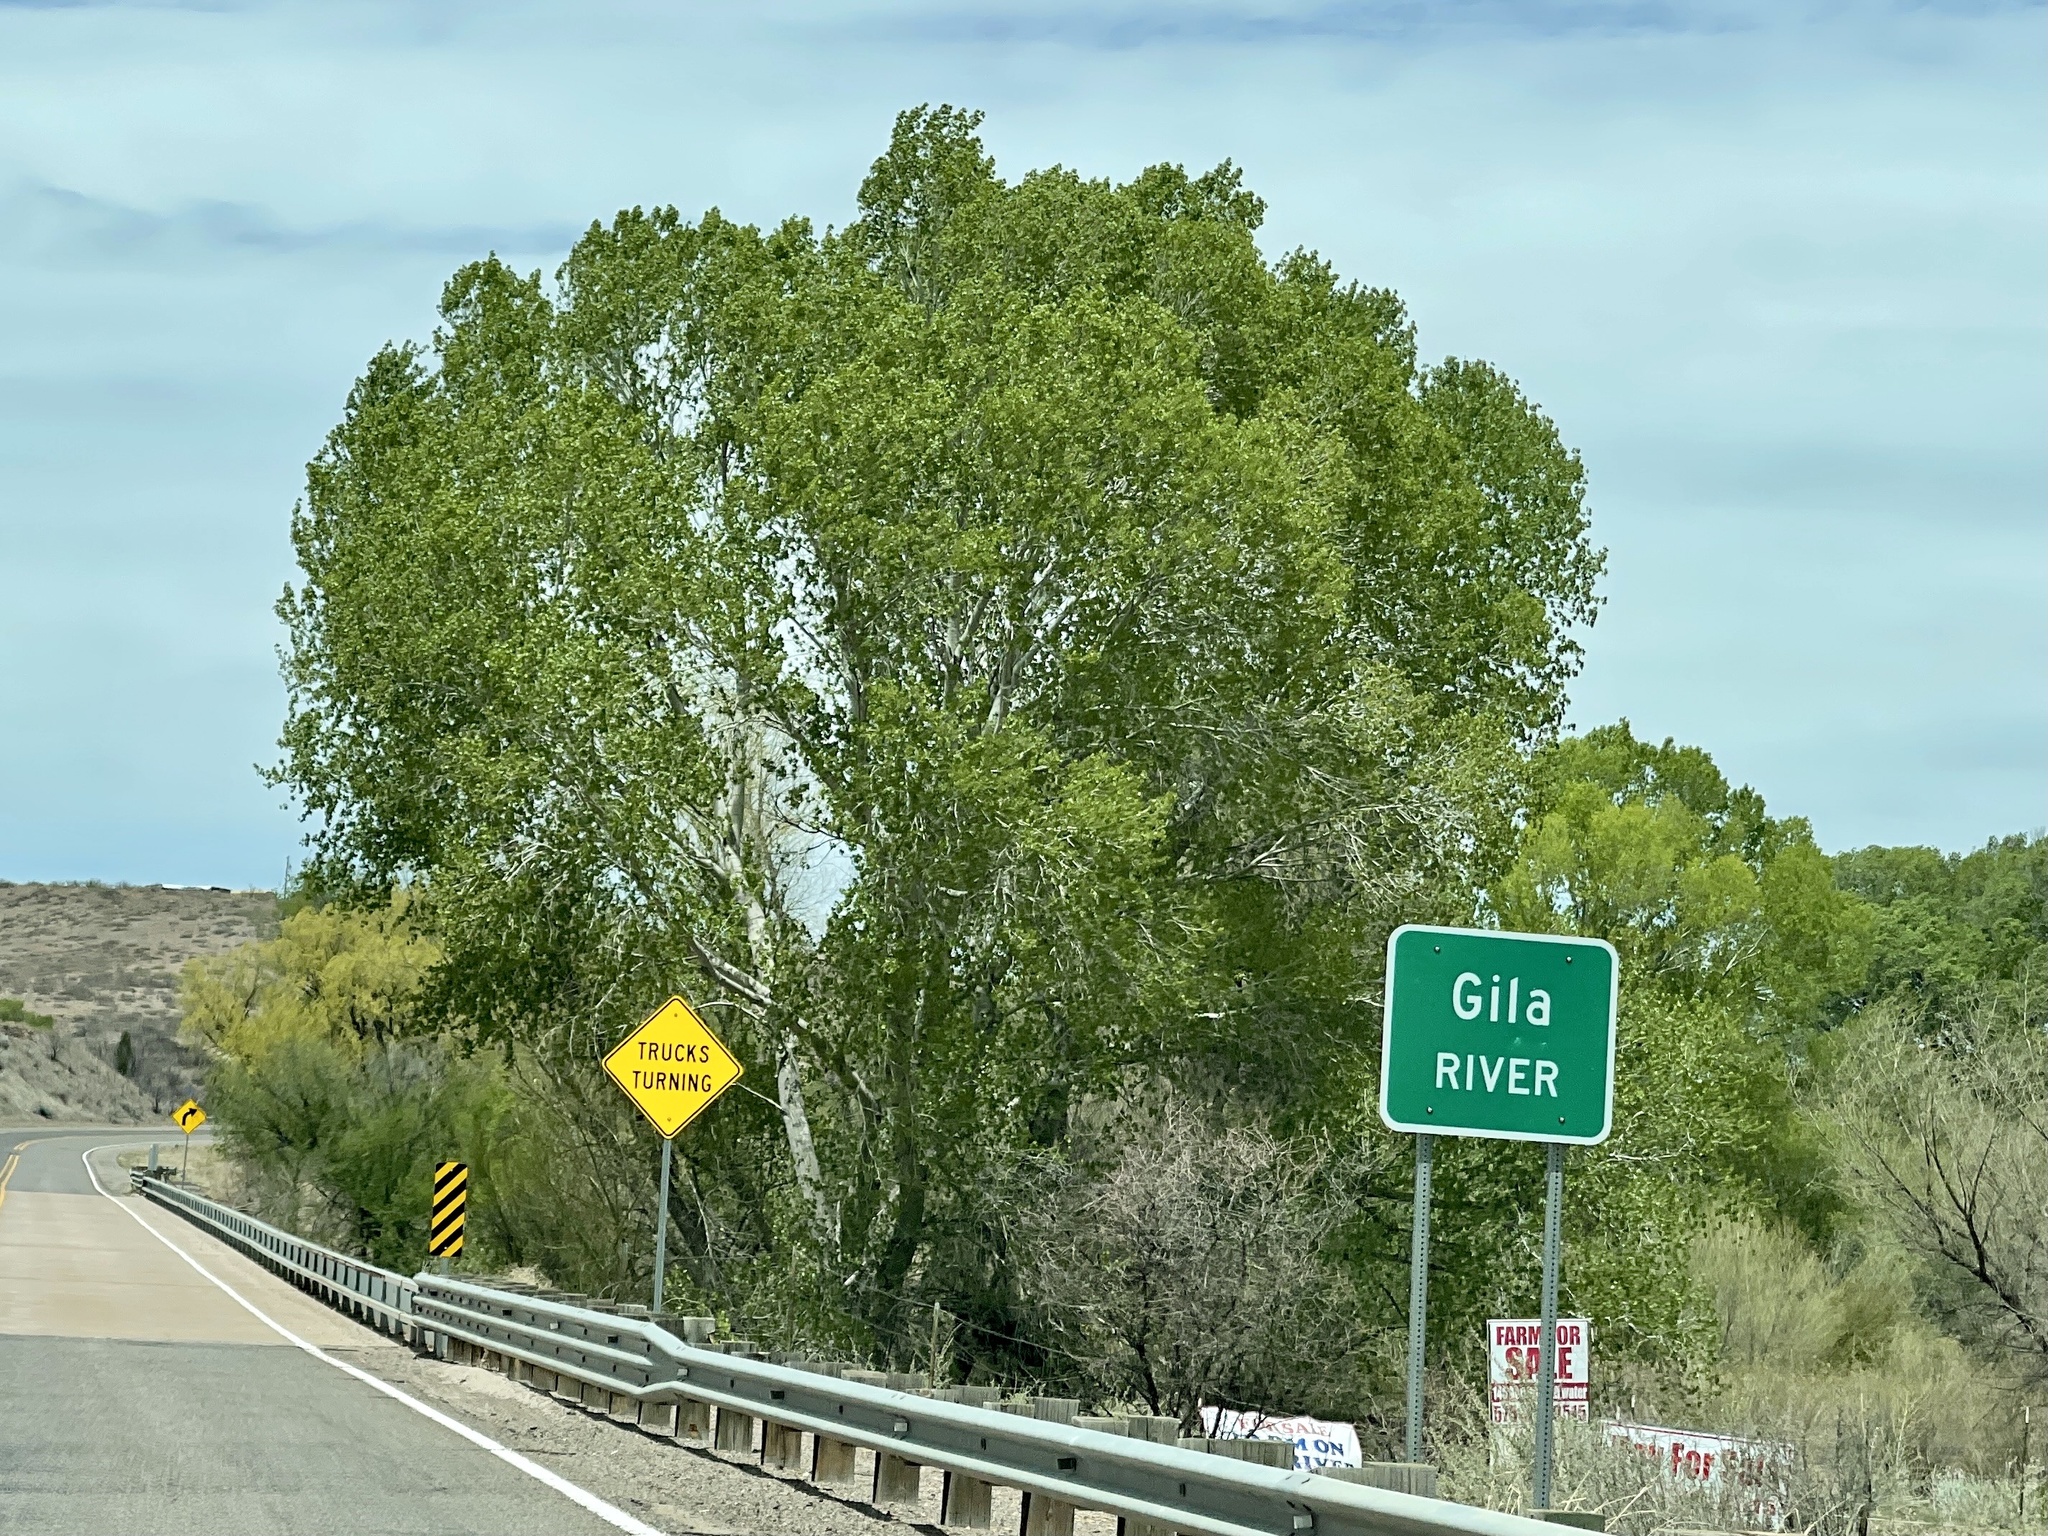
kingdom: Plantae
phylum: Tracheophyta
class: Magnoliopsida
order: Malpighiales
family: Salicaceae
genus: Populus
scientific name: Populus fremontii
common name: Fremont's cottonwood
